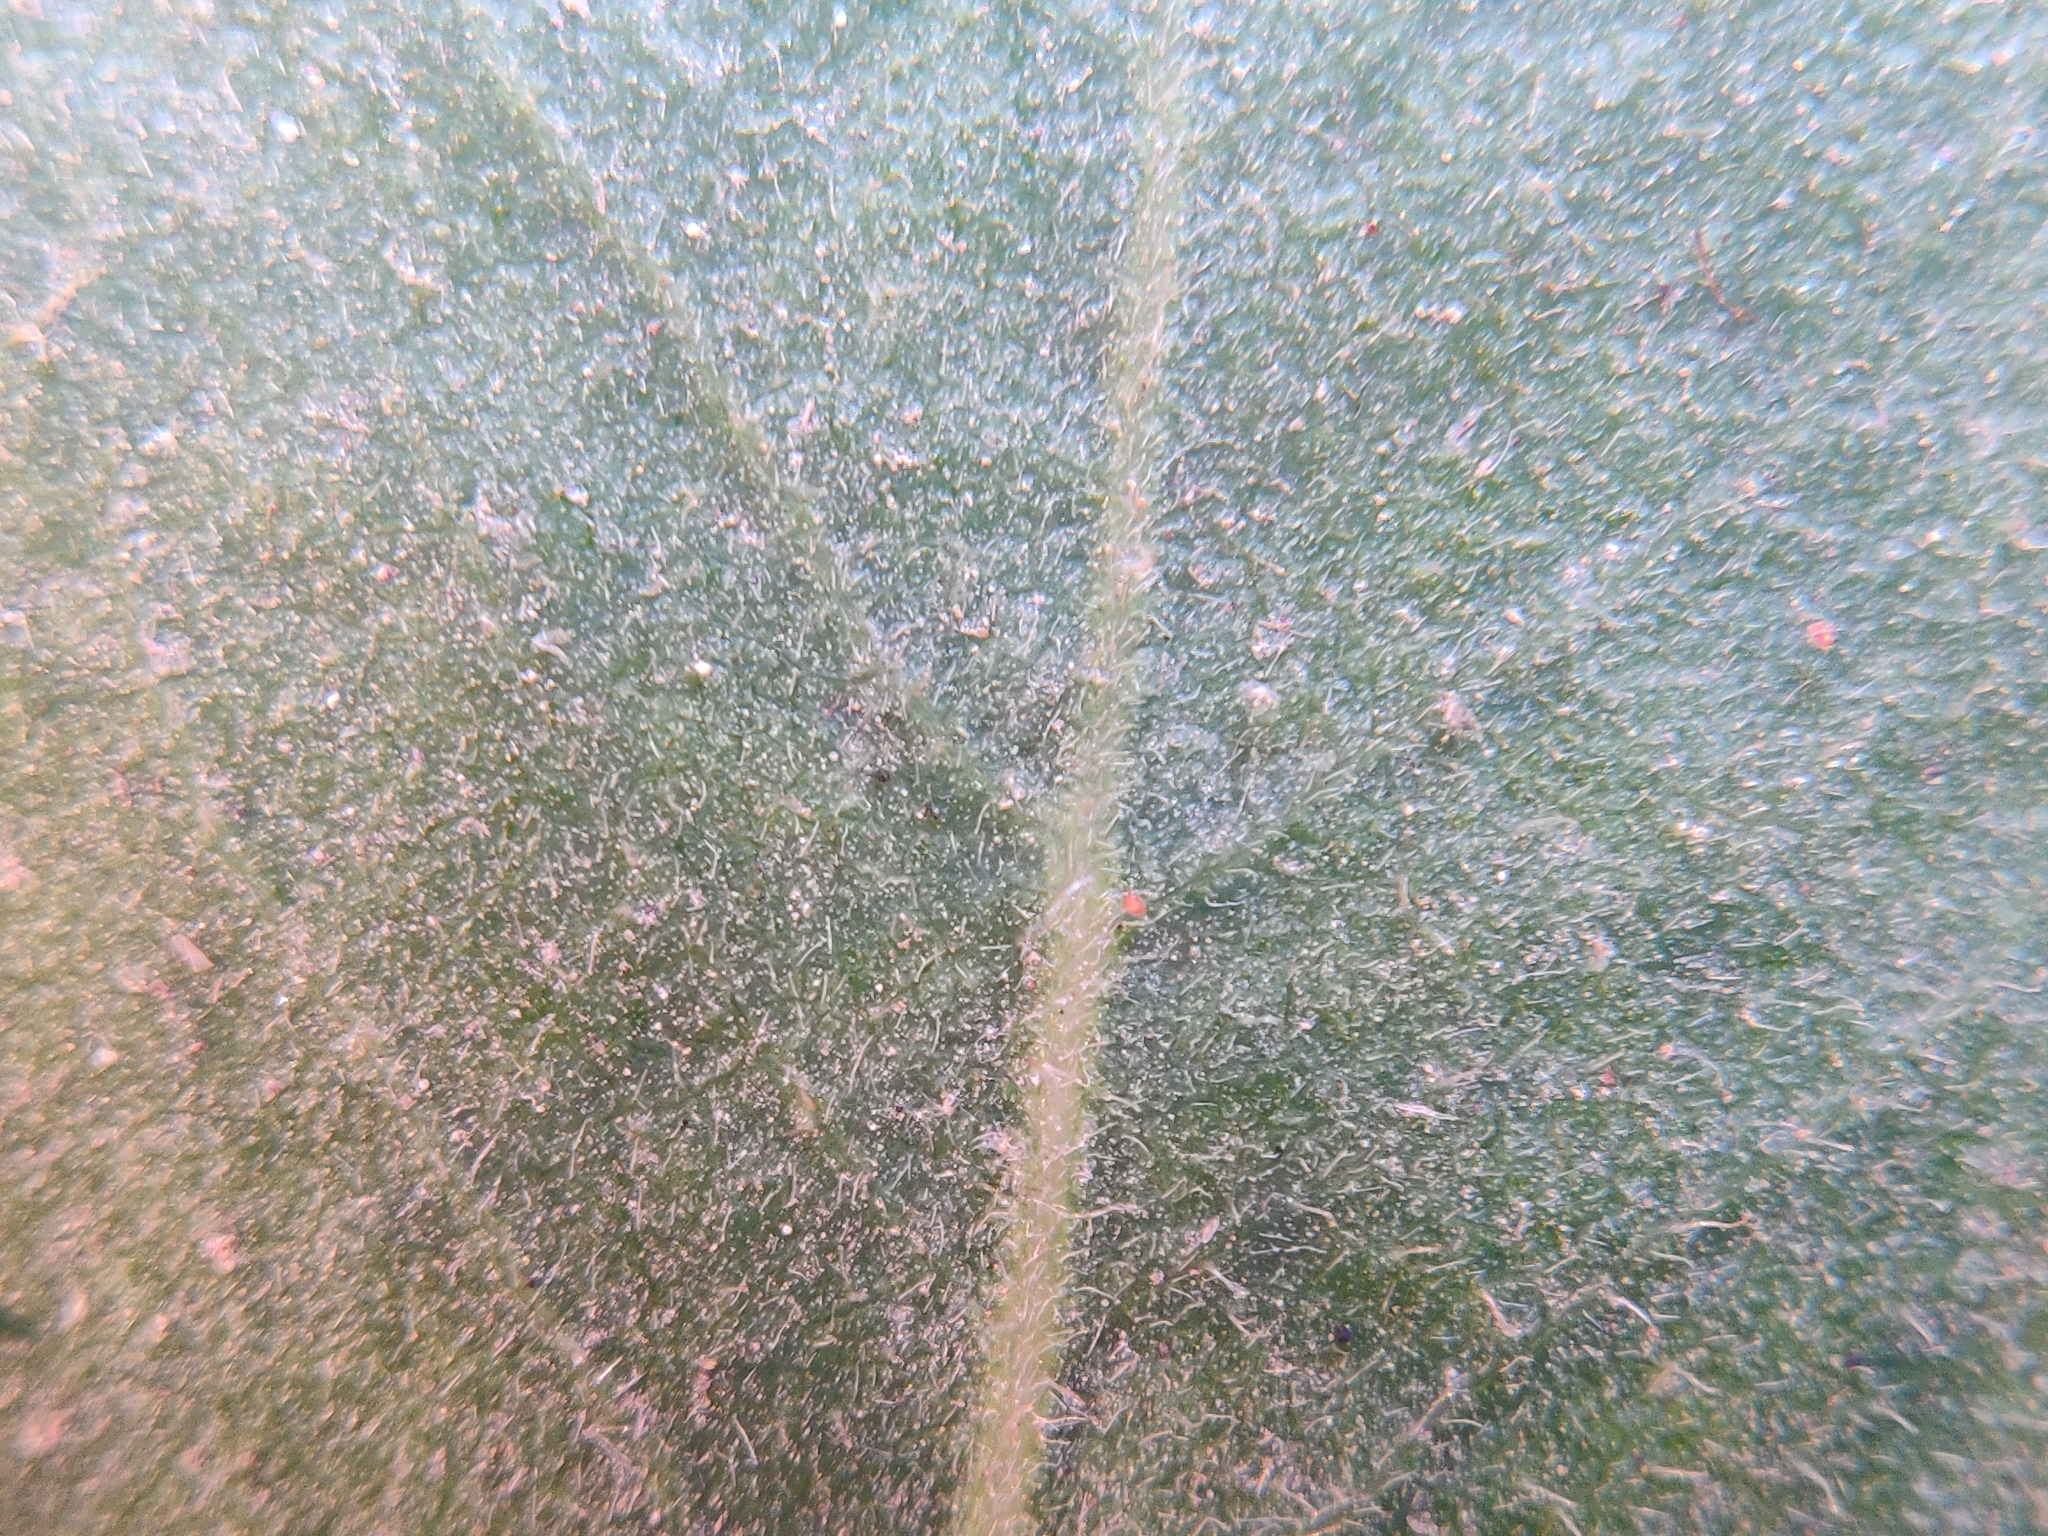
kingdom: Plantae
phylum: Tracheophyta
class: Magnoliopsida
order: Ericales
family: Ericaceae
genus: Arctostaphylos
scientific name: Arctostaphylos virgata
